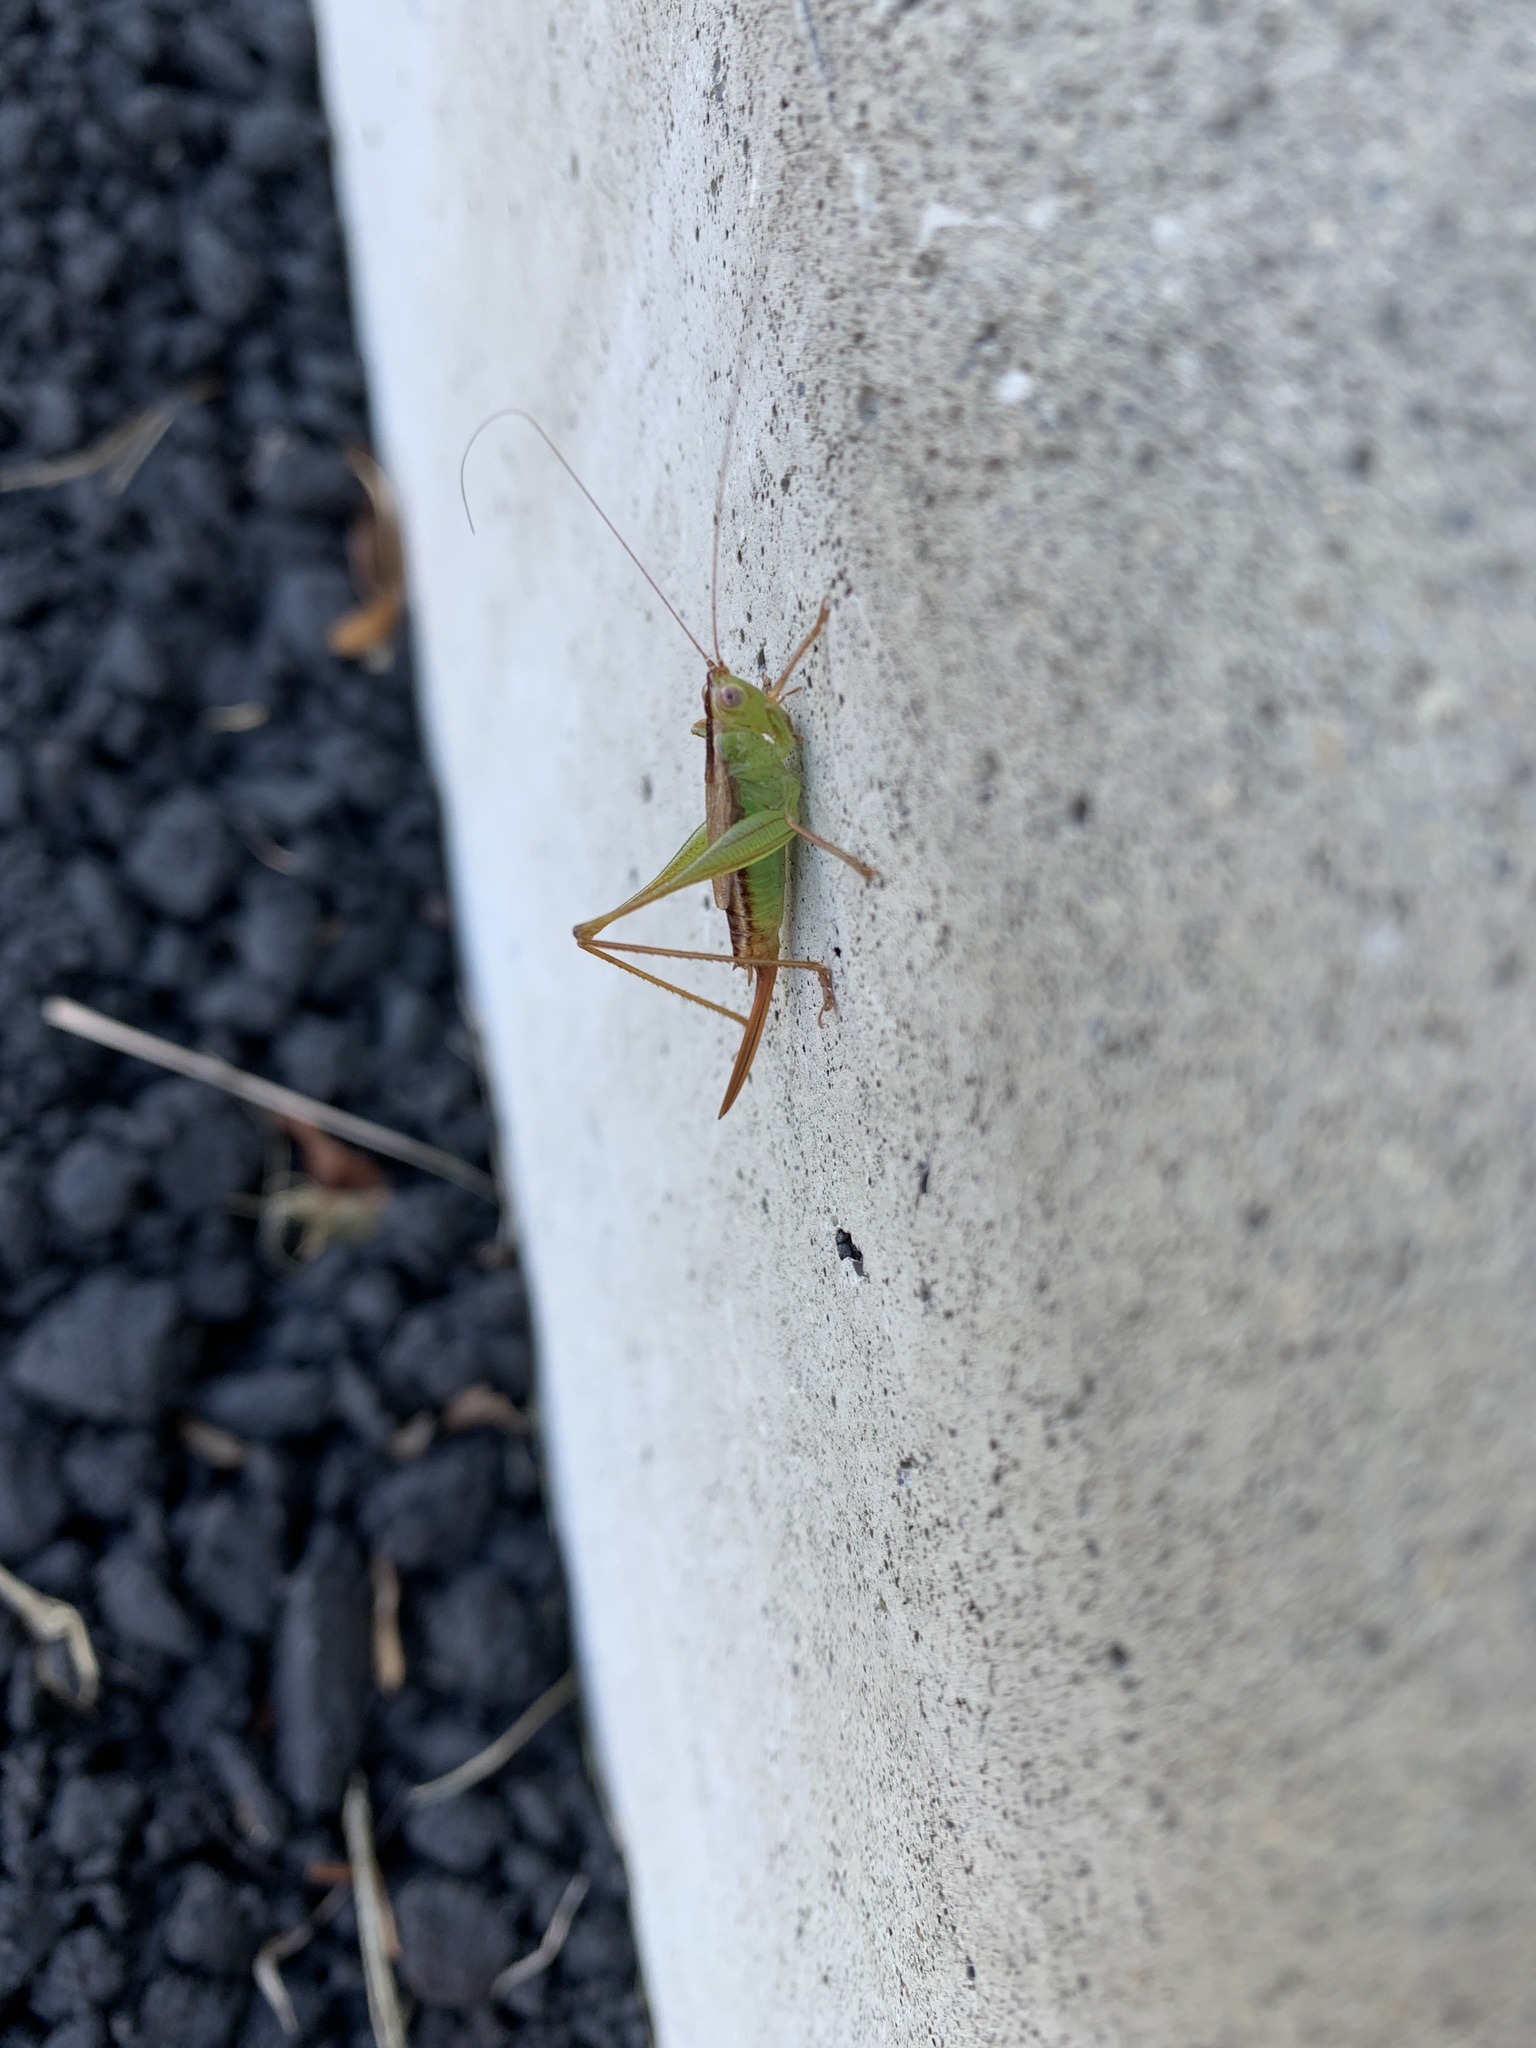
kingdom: Animalia
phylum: Arthropoda
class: Insecta
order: Orthoptera
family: Tettigoniidae
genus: Conocephalus
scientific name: Conocephalus brevipennis
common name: Short-winged meadow katydid
